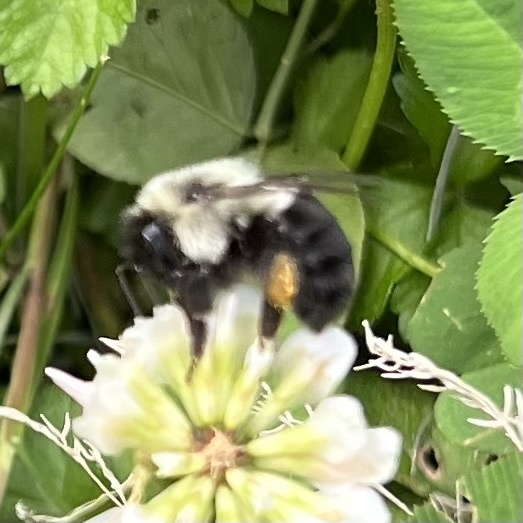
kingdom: Animalia
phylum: Arthropoda
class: Insecta
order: Hymenoptera
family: Apidae
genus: Bombus
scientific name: Bombus impatiens
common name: Common eastern bumble bee
